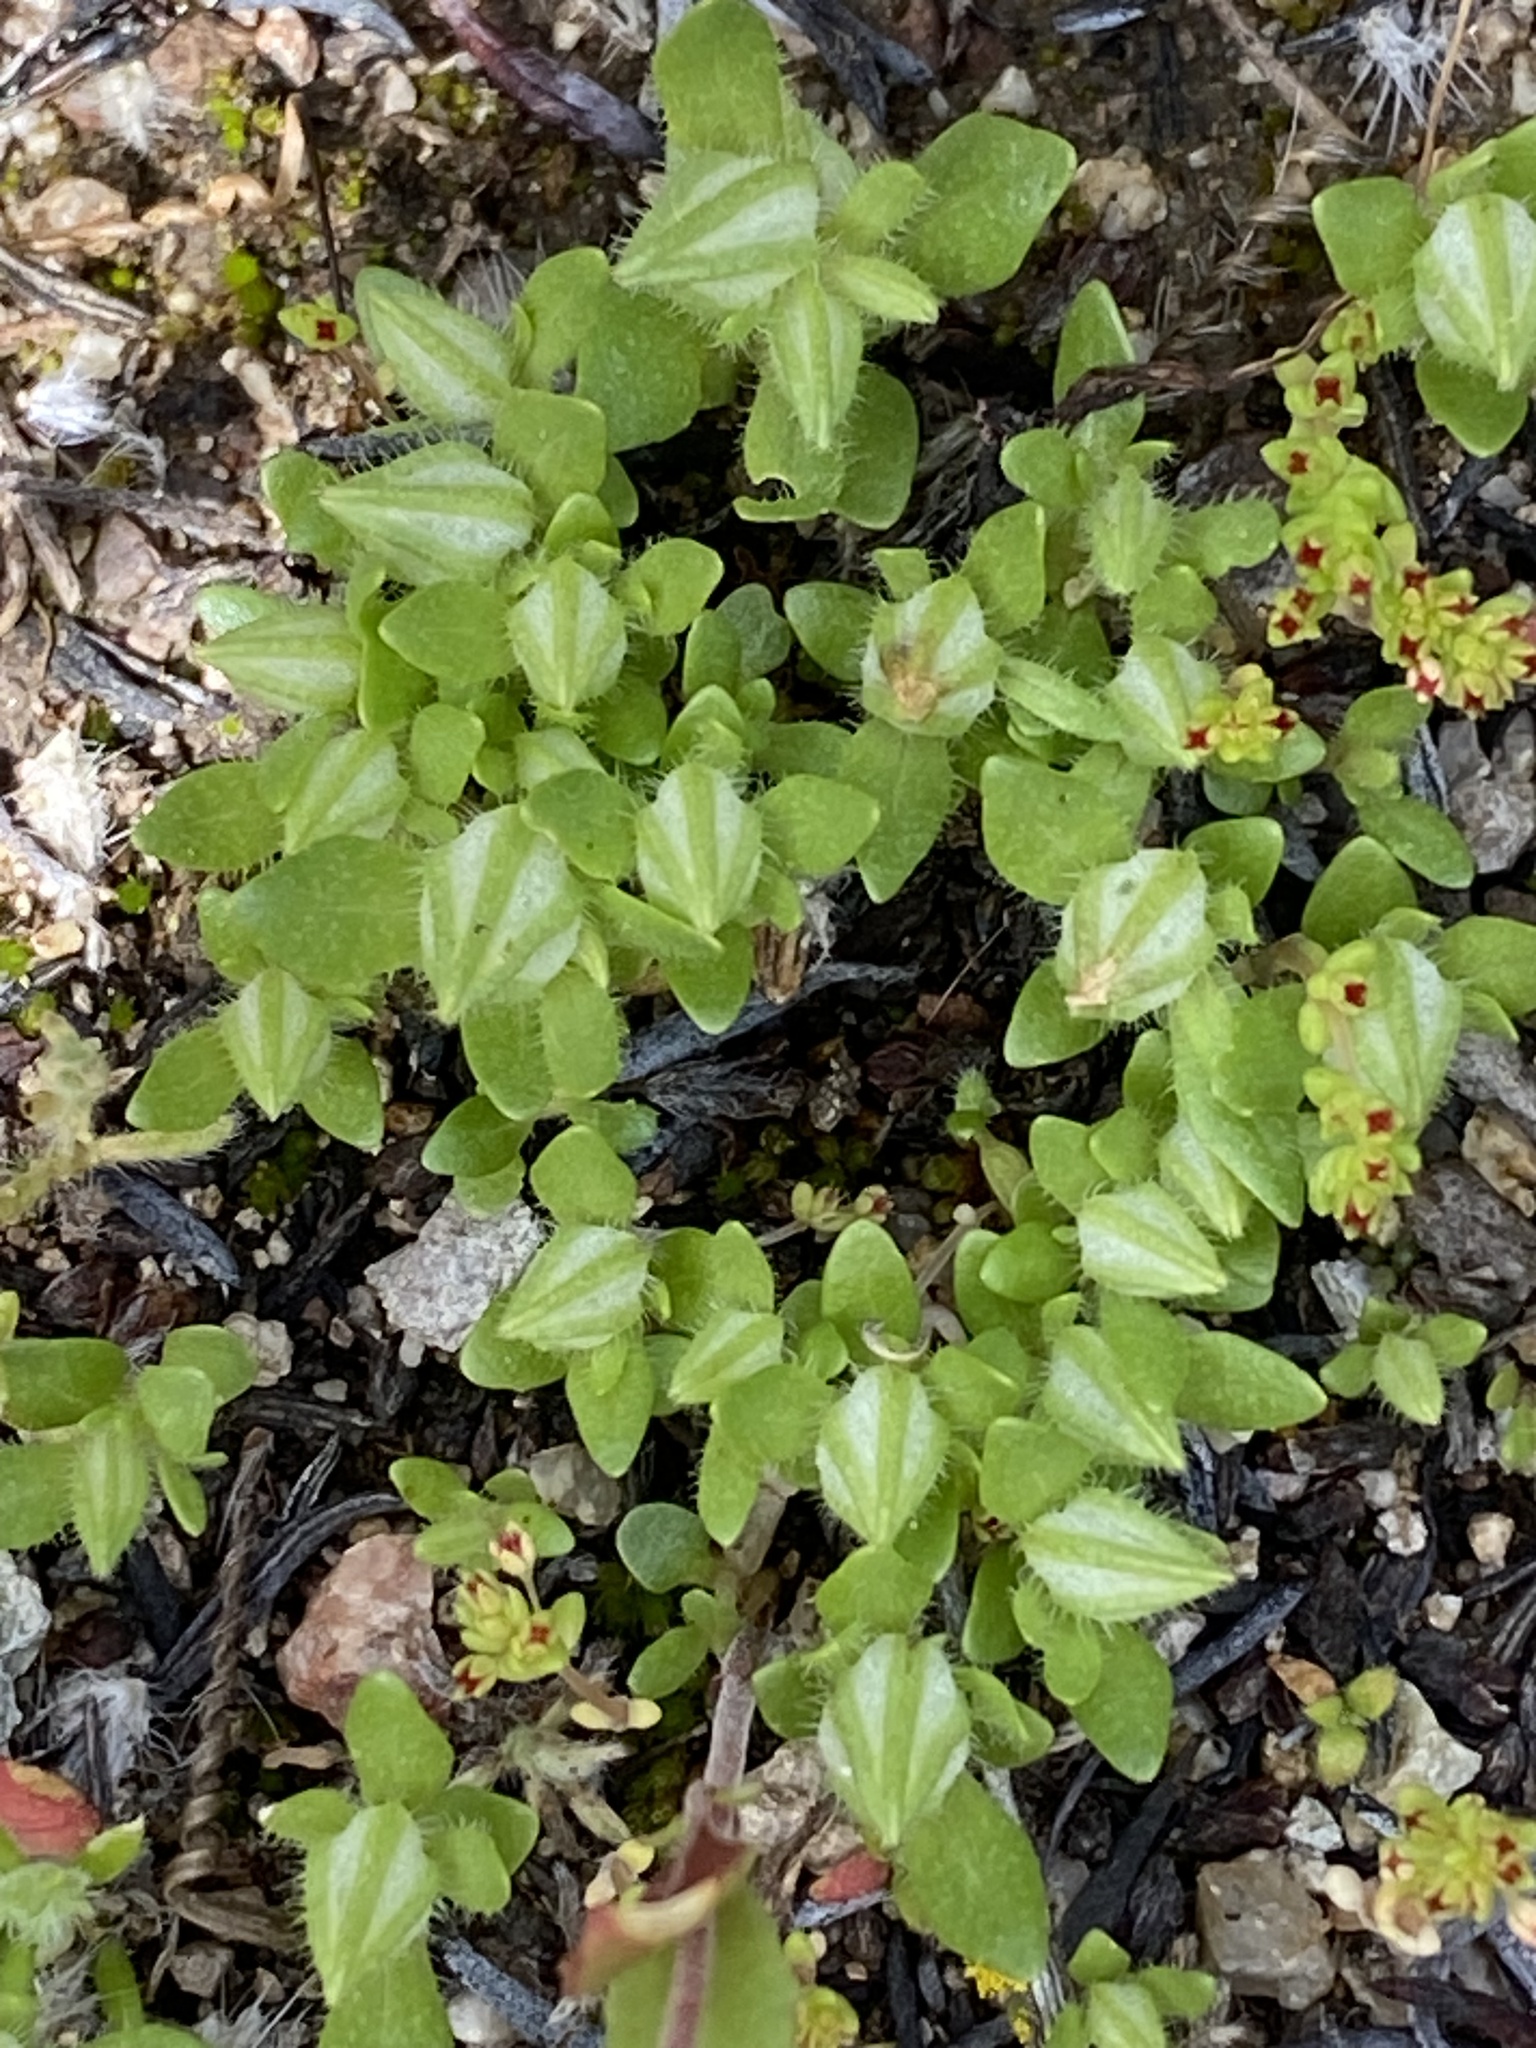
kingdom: Plantae
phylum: Tracheophyta
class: Magnoliopsida
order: Lamiales
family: Phrymaceae
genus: Diplacus
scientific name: Diplacus douglasii
